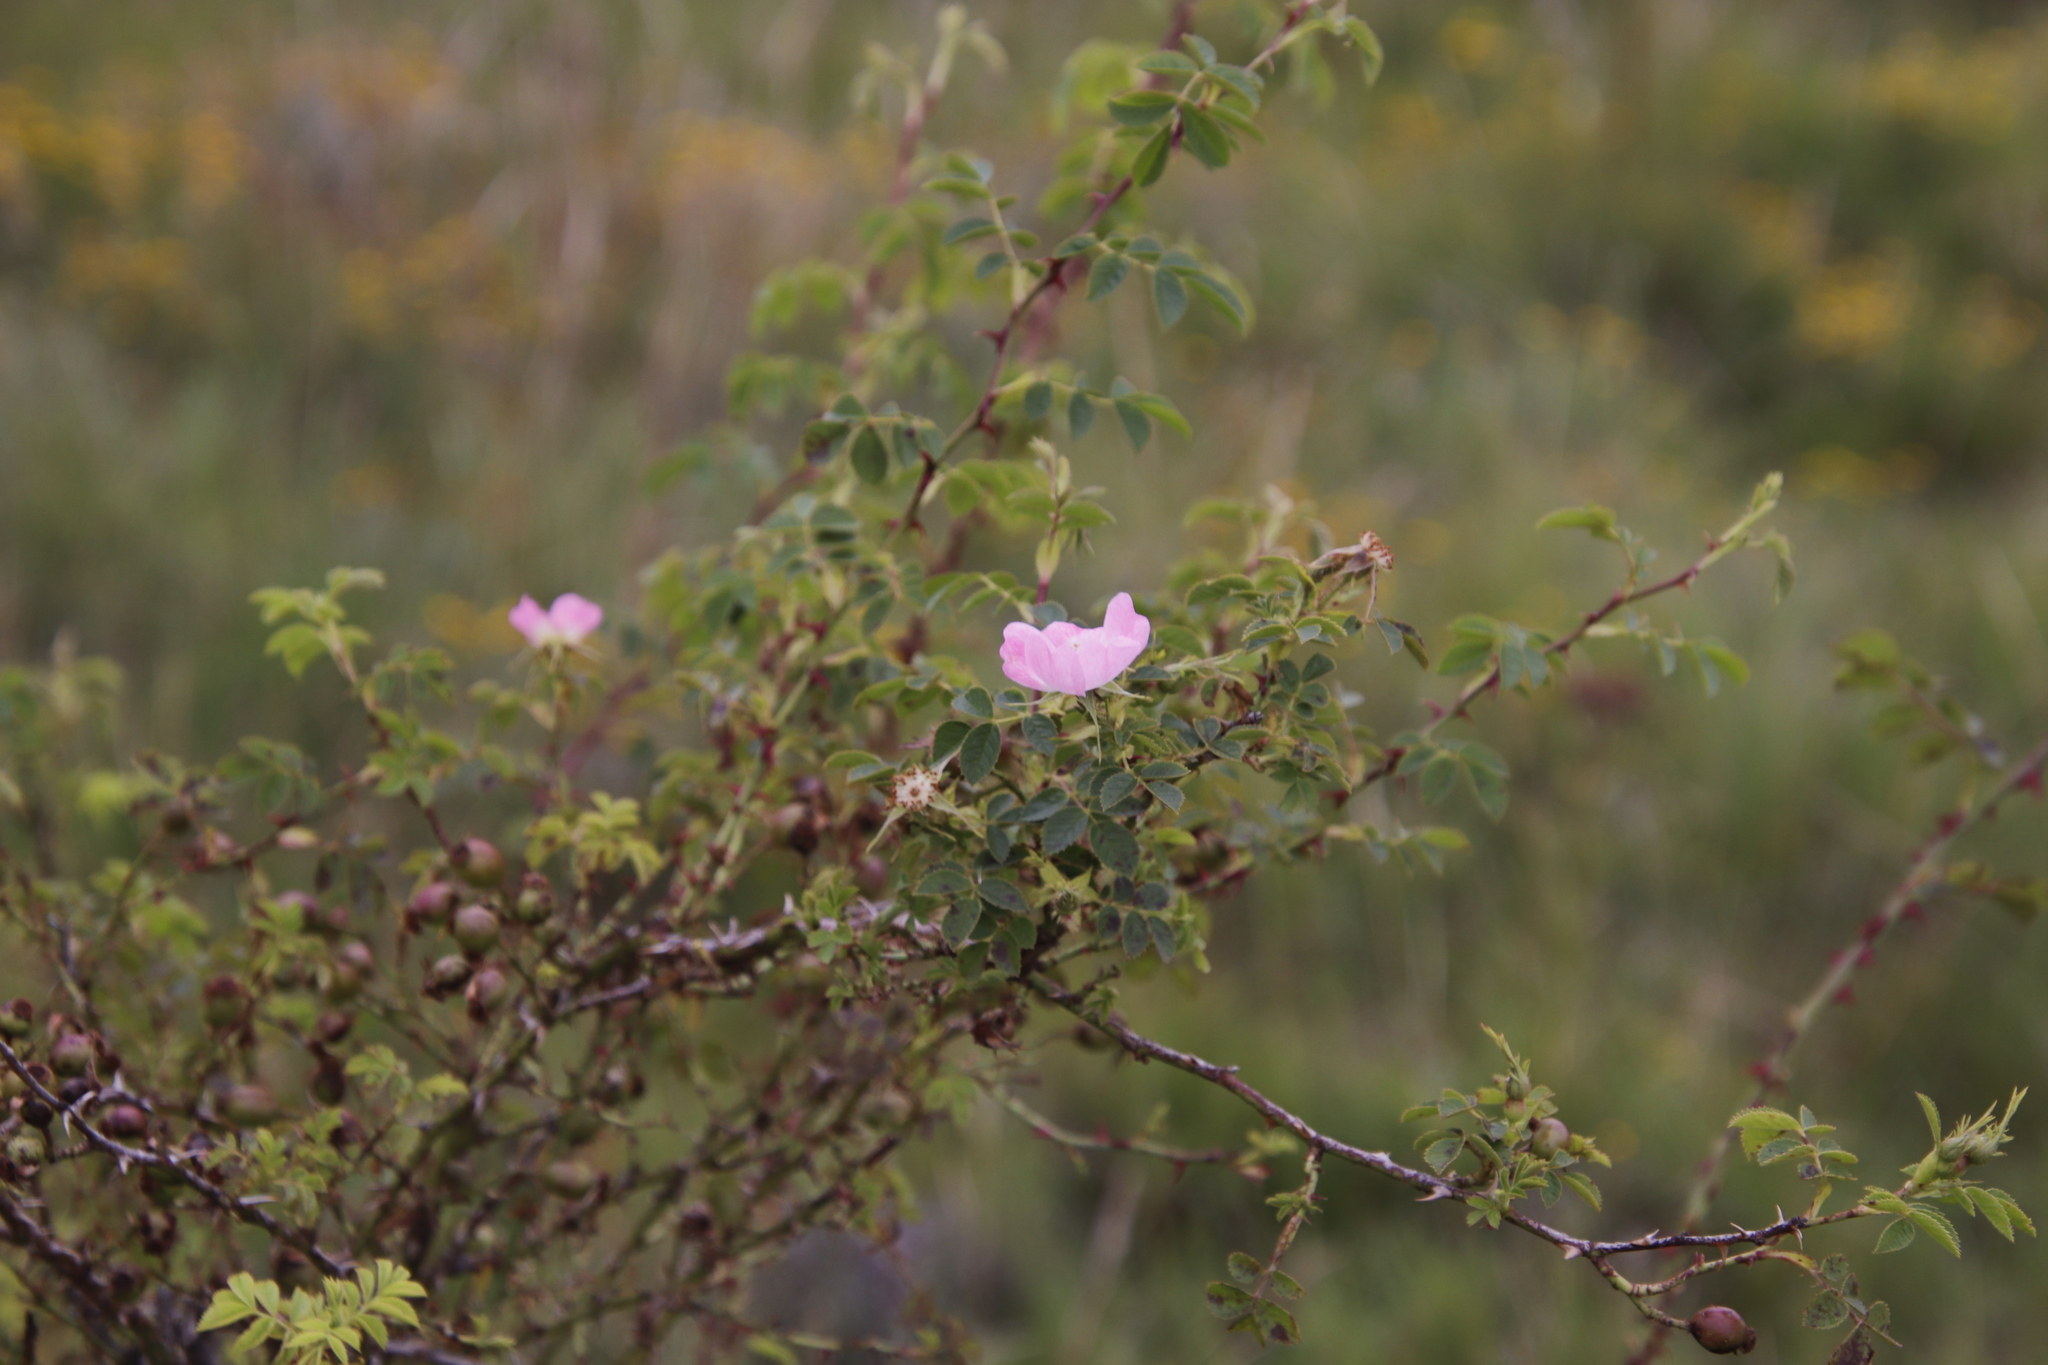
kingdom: Plantae
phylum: Tracheophyta
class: Magnoliopsida
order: Rosales
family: Rosaceae
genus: Rosa
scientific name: Rosa rubiginosa
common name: Sweet-briar
